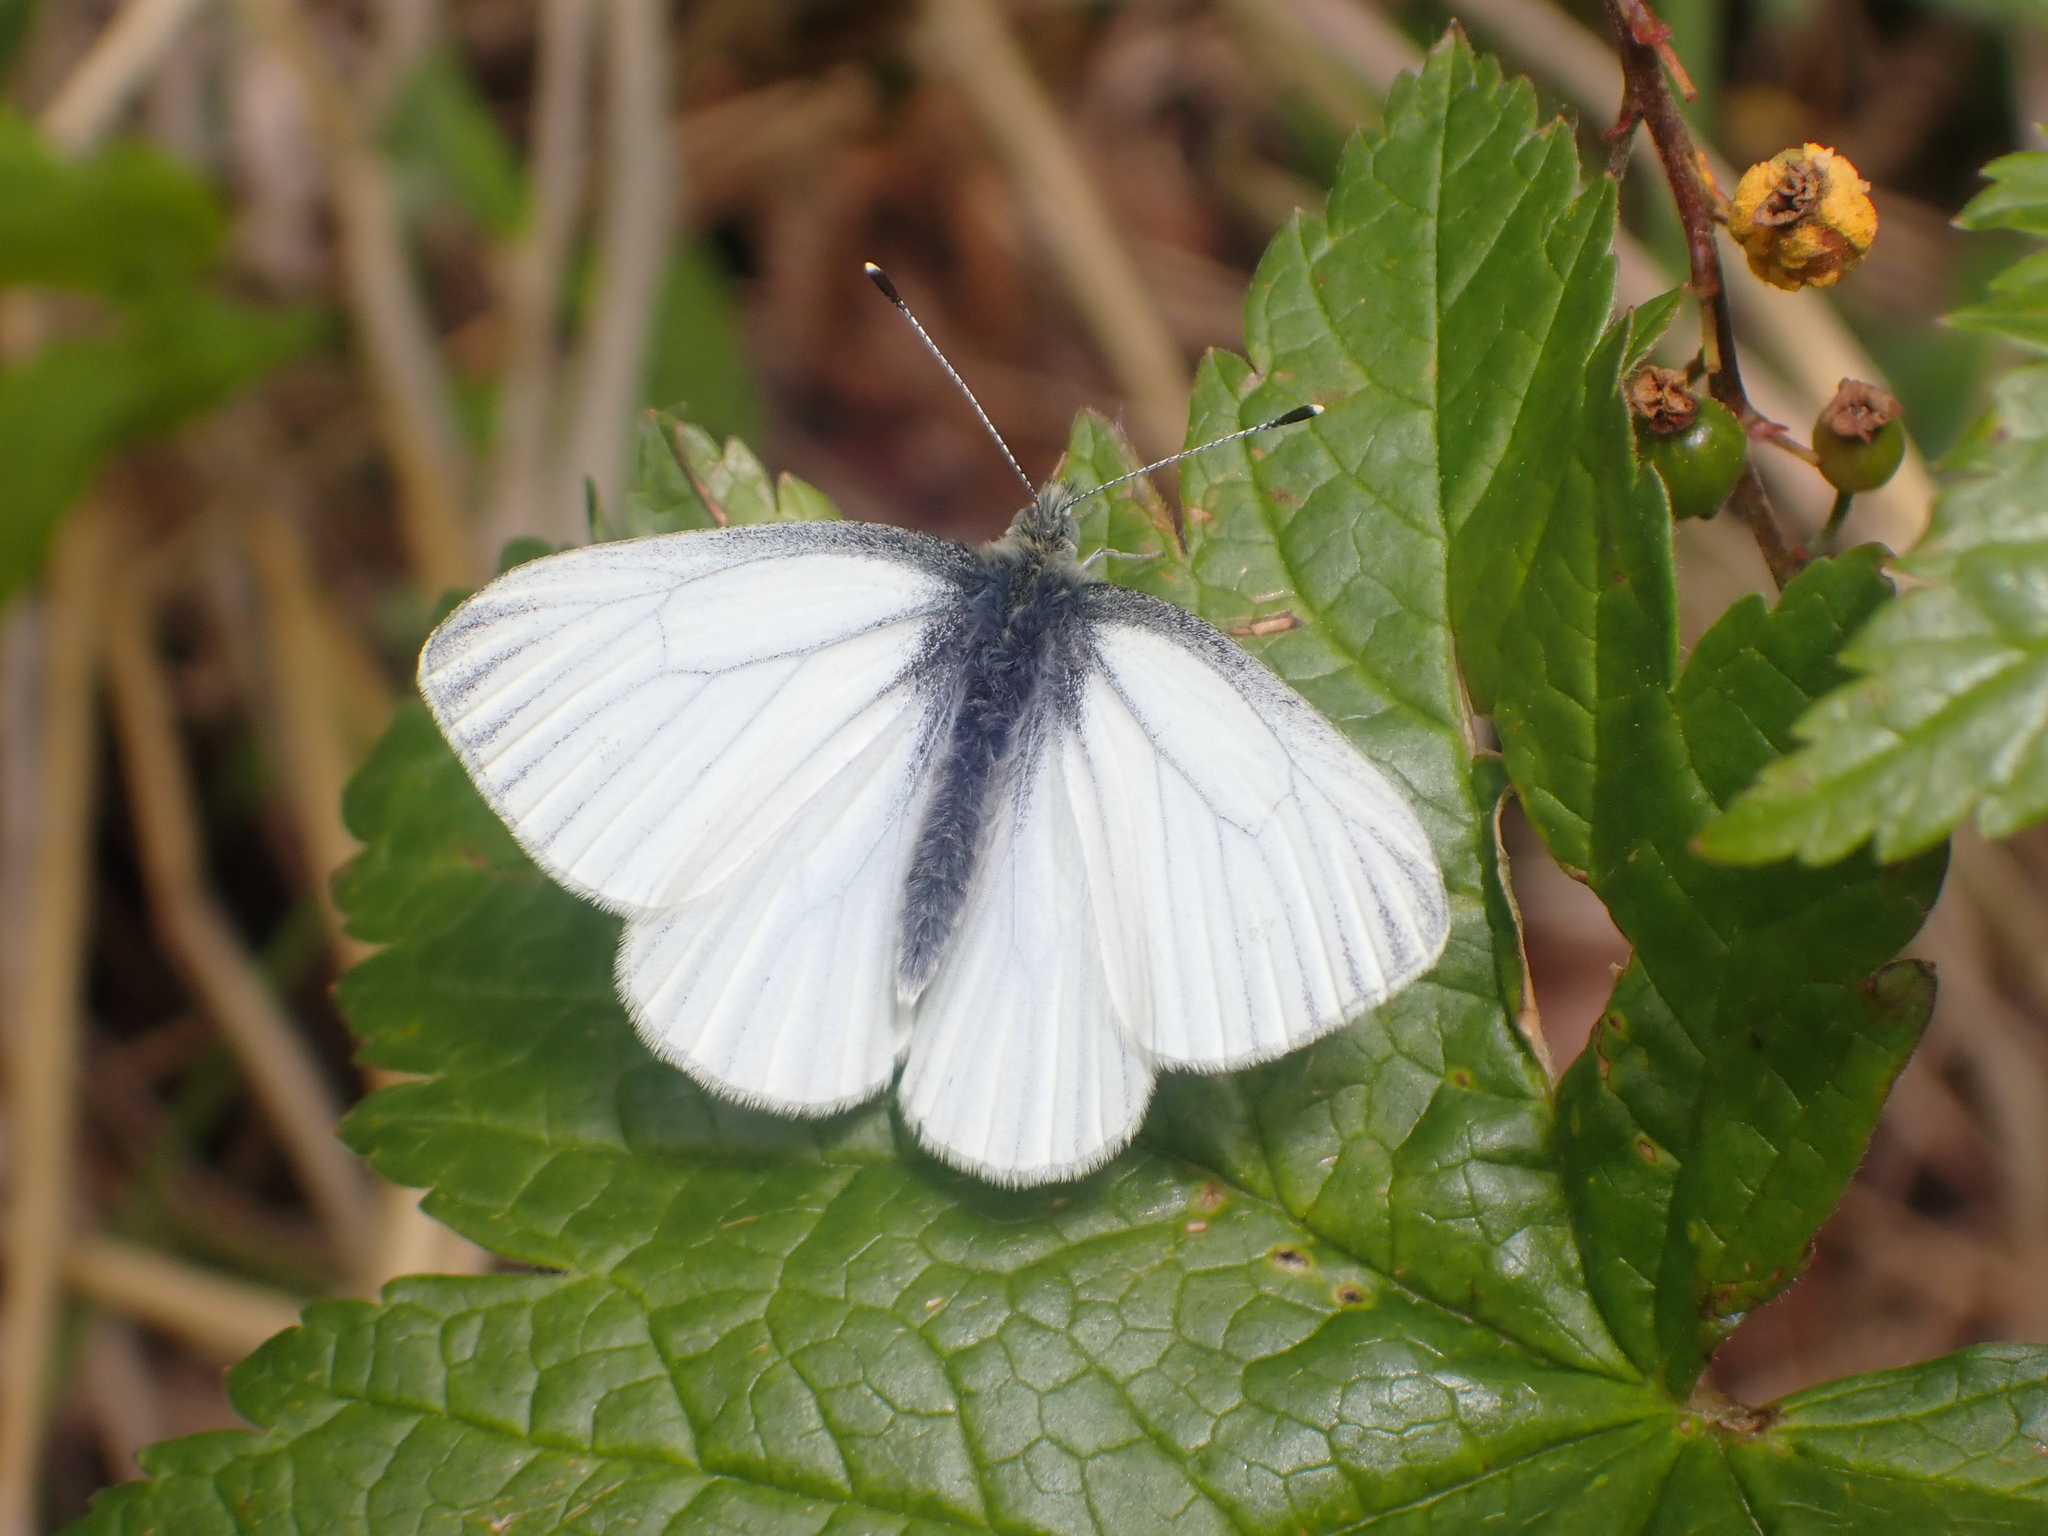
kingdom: Animalia
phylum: Arthropoda
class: Insecta
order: Lepidoptera
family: Pieridae
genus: Pieris
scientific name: Pieris marginalis
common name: Margined white
